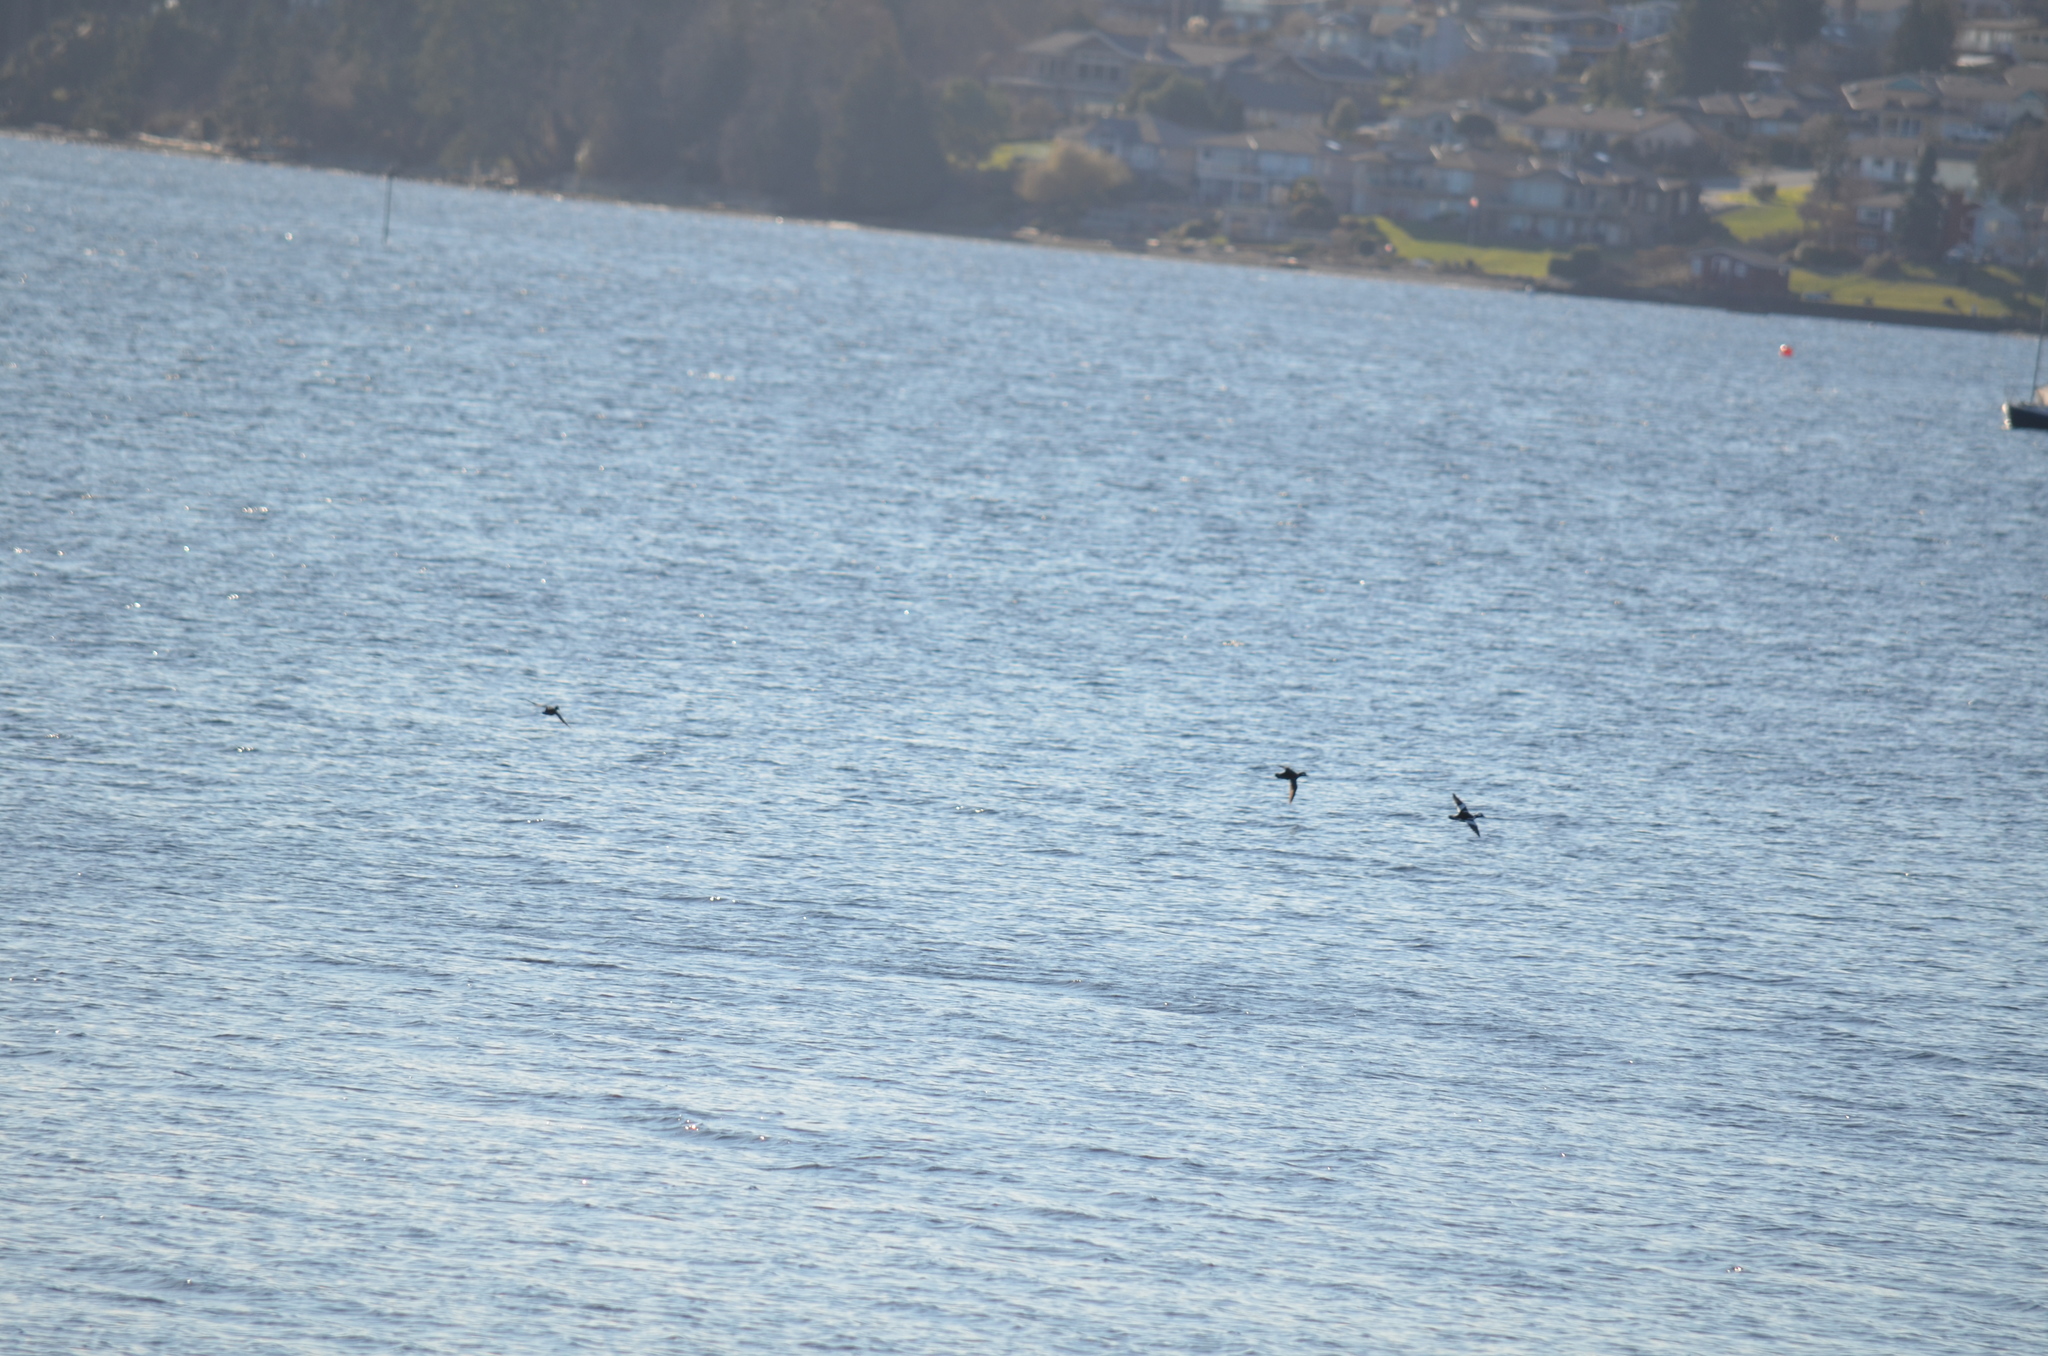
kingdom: Animalia
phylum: Chordata
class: Aves
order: Anseriformes
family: Anatidae
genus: Bucephala
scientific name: Bucephala albeola
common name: Bufflehead
